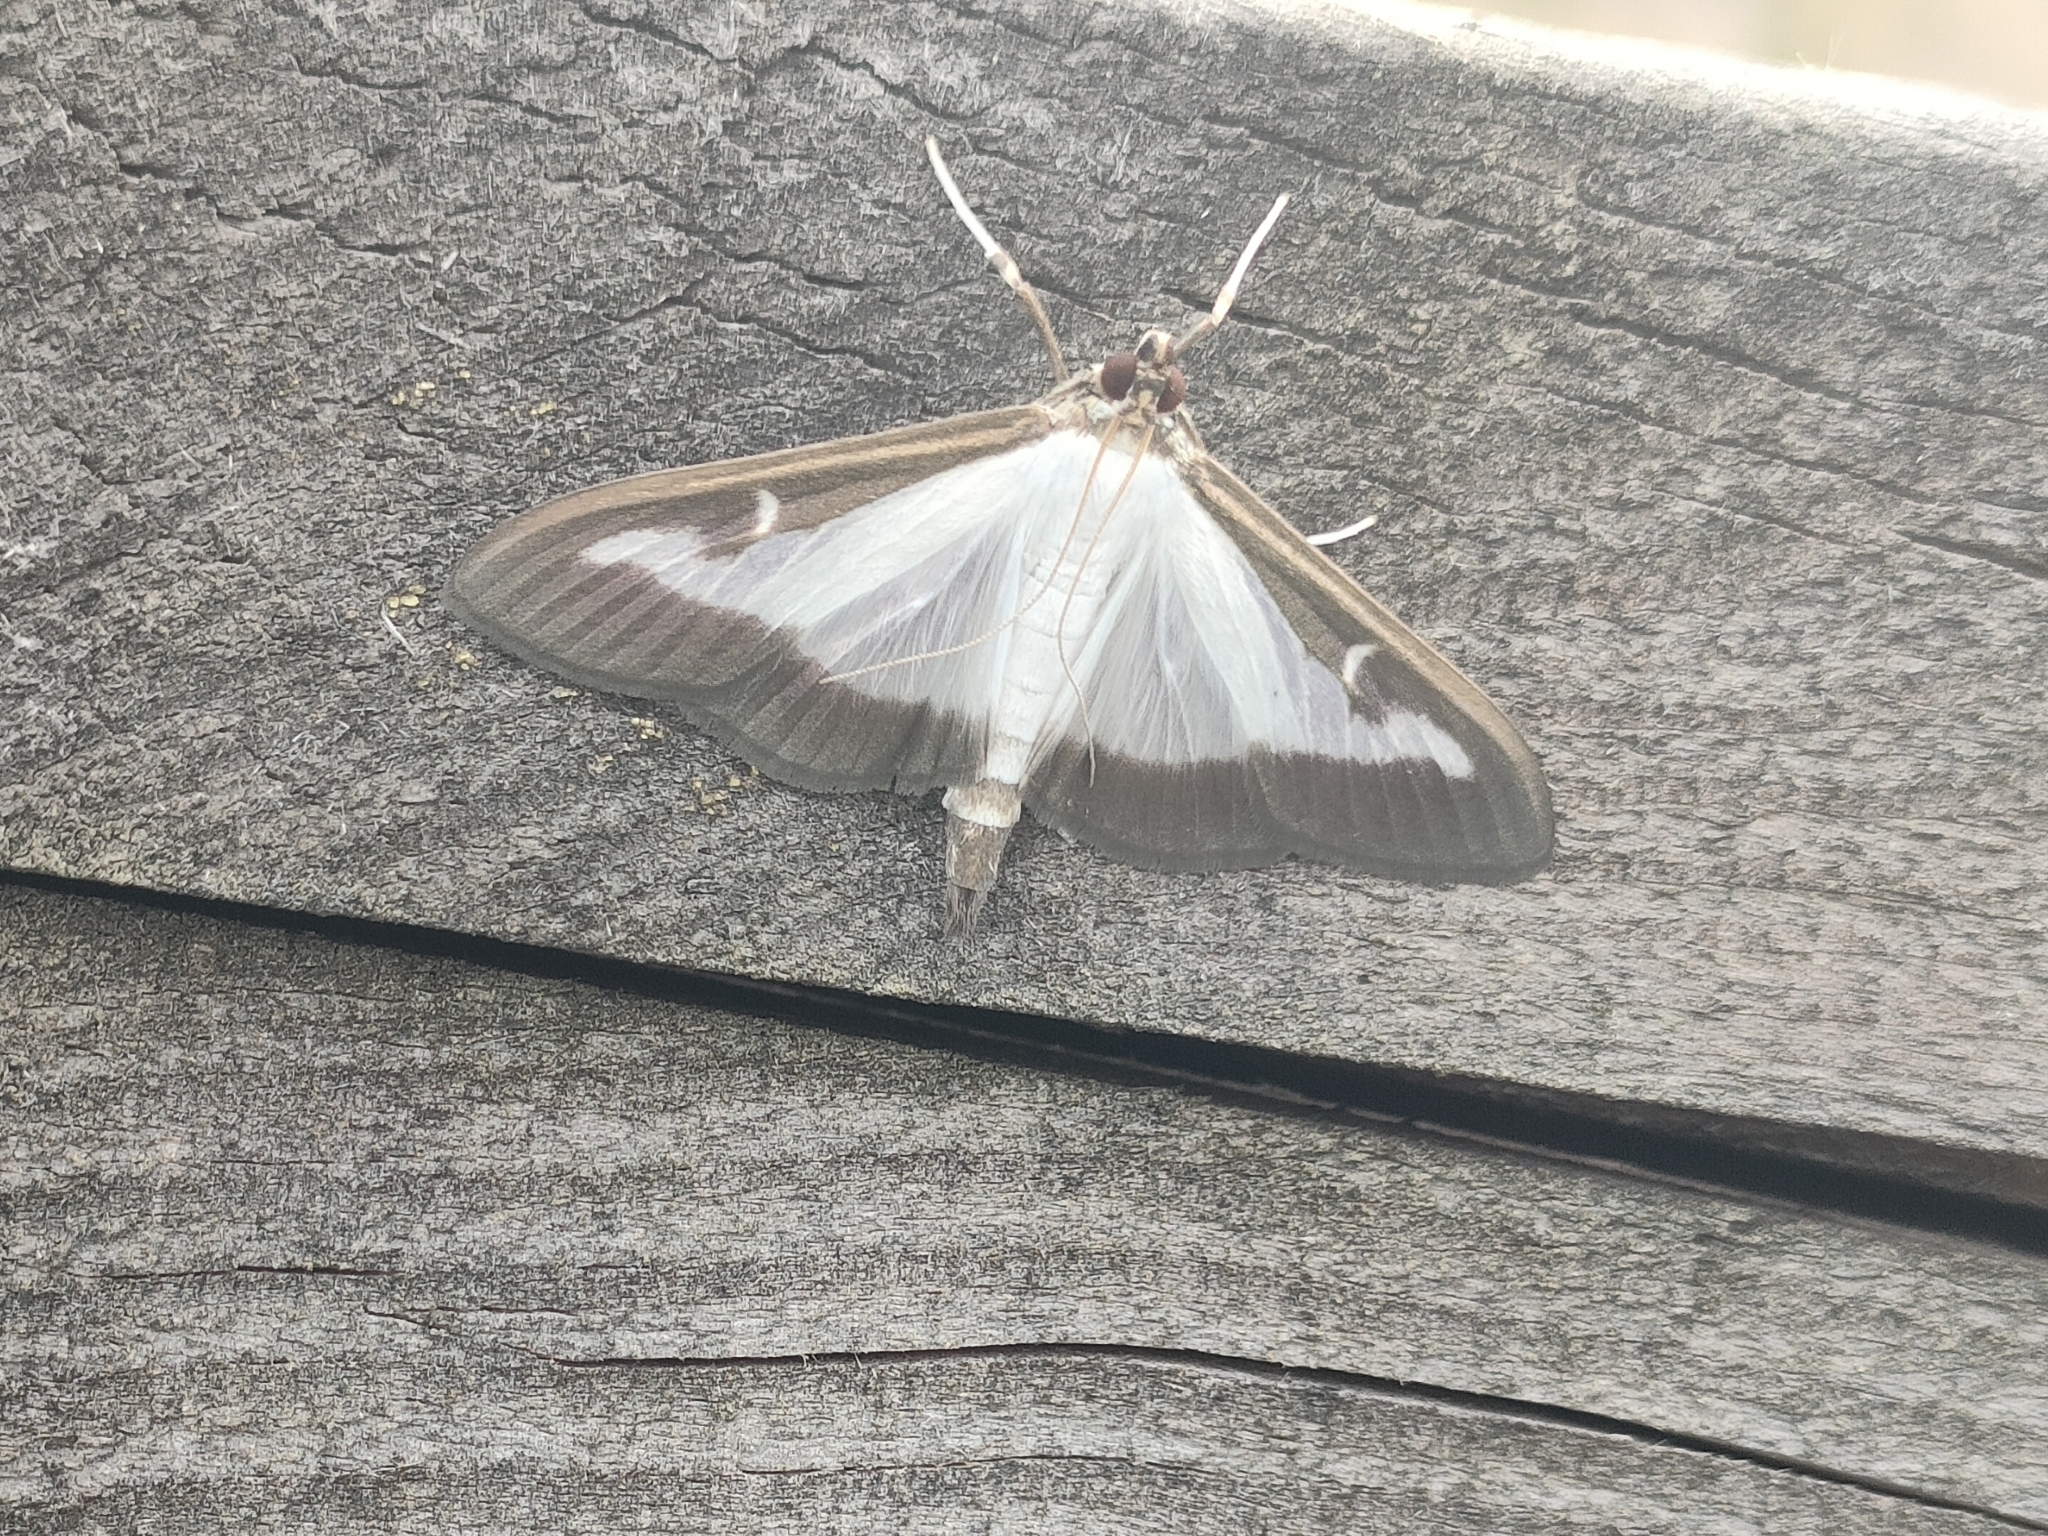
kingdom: Animalia
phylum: Arthropoda
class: Insecta
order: Lepidoptera
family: Crambidae
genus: Cydalima
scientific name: Cydalima perspectalis
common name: Box tree moth
